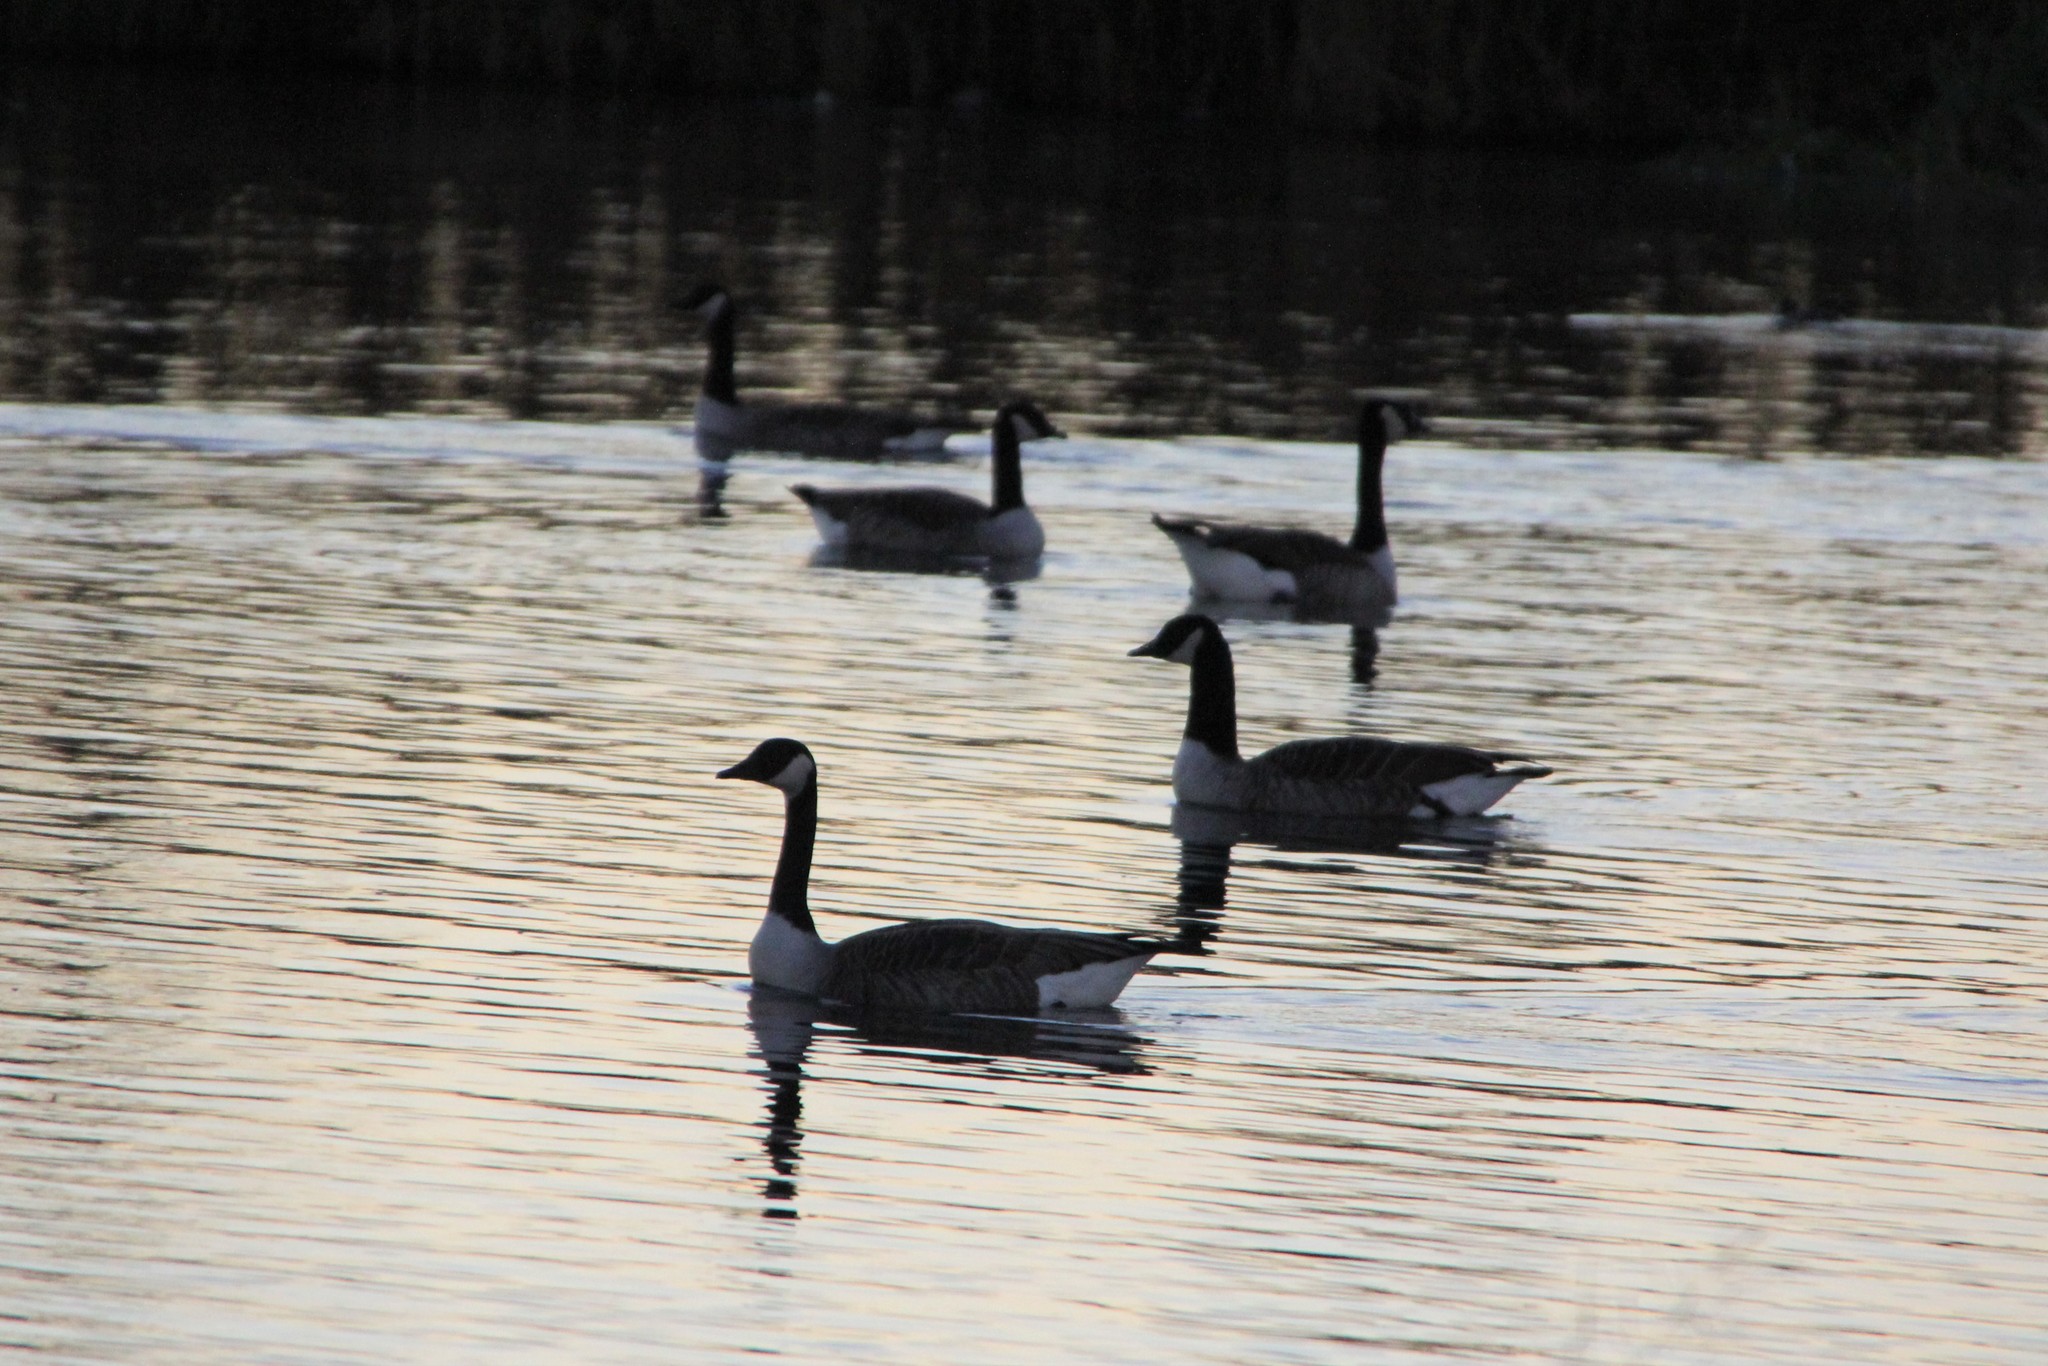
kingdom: Animalia
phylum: Chordata
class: Aves
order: Anseriformes
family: Anatidae
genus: Branta
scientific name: Branta canadensis
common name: Canada goose
